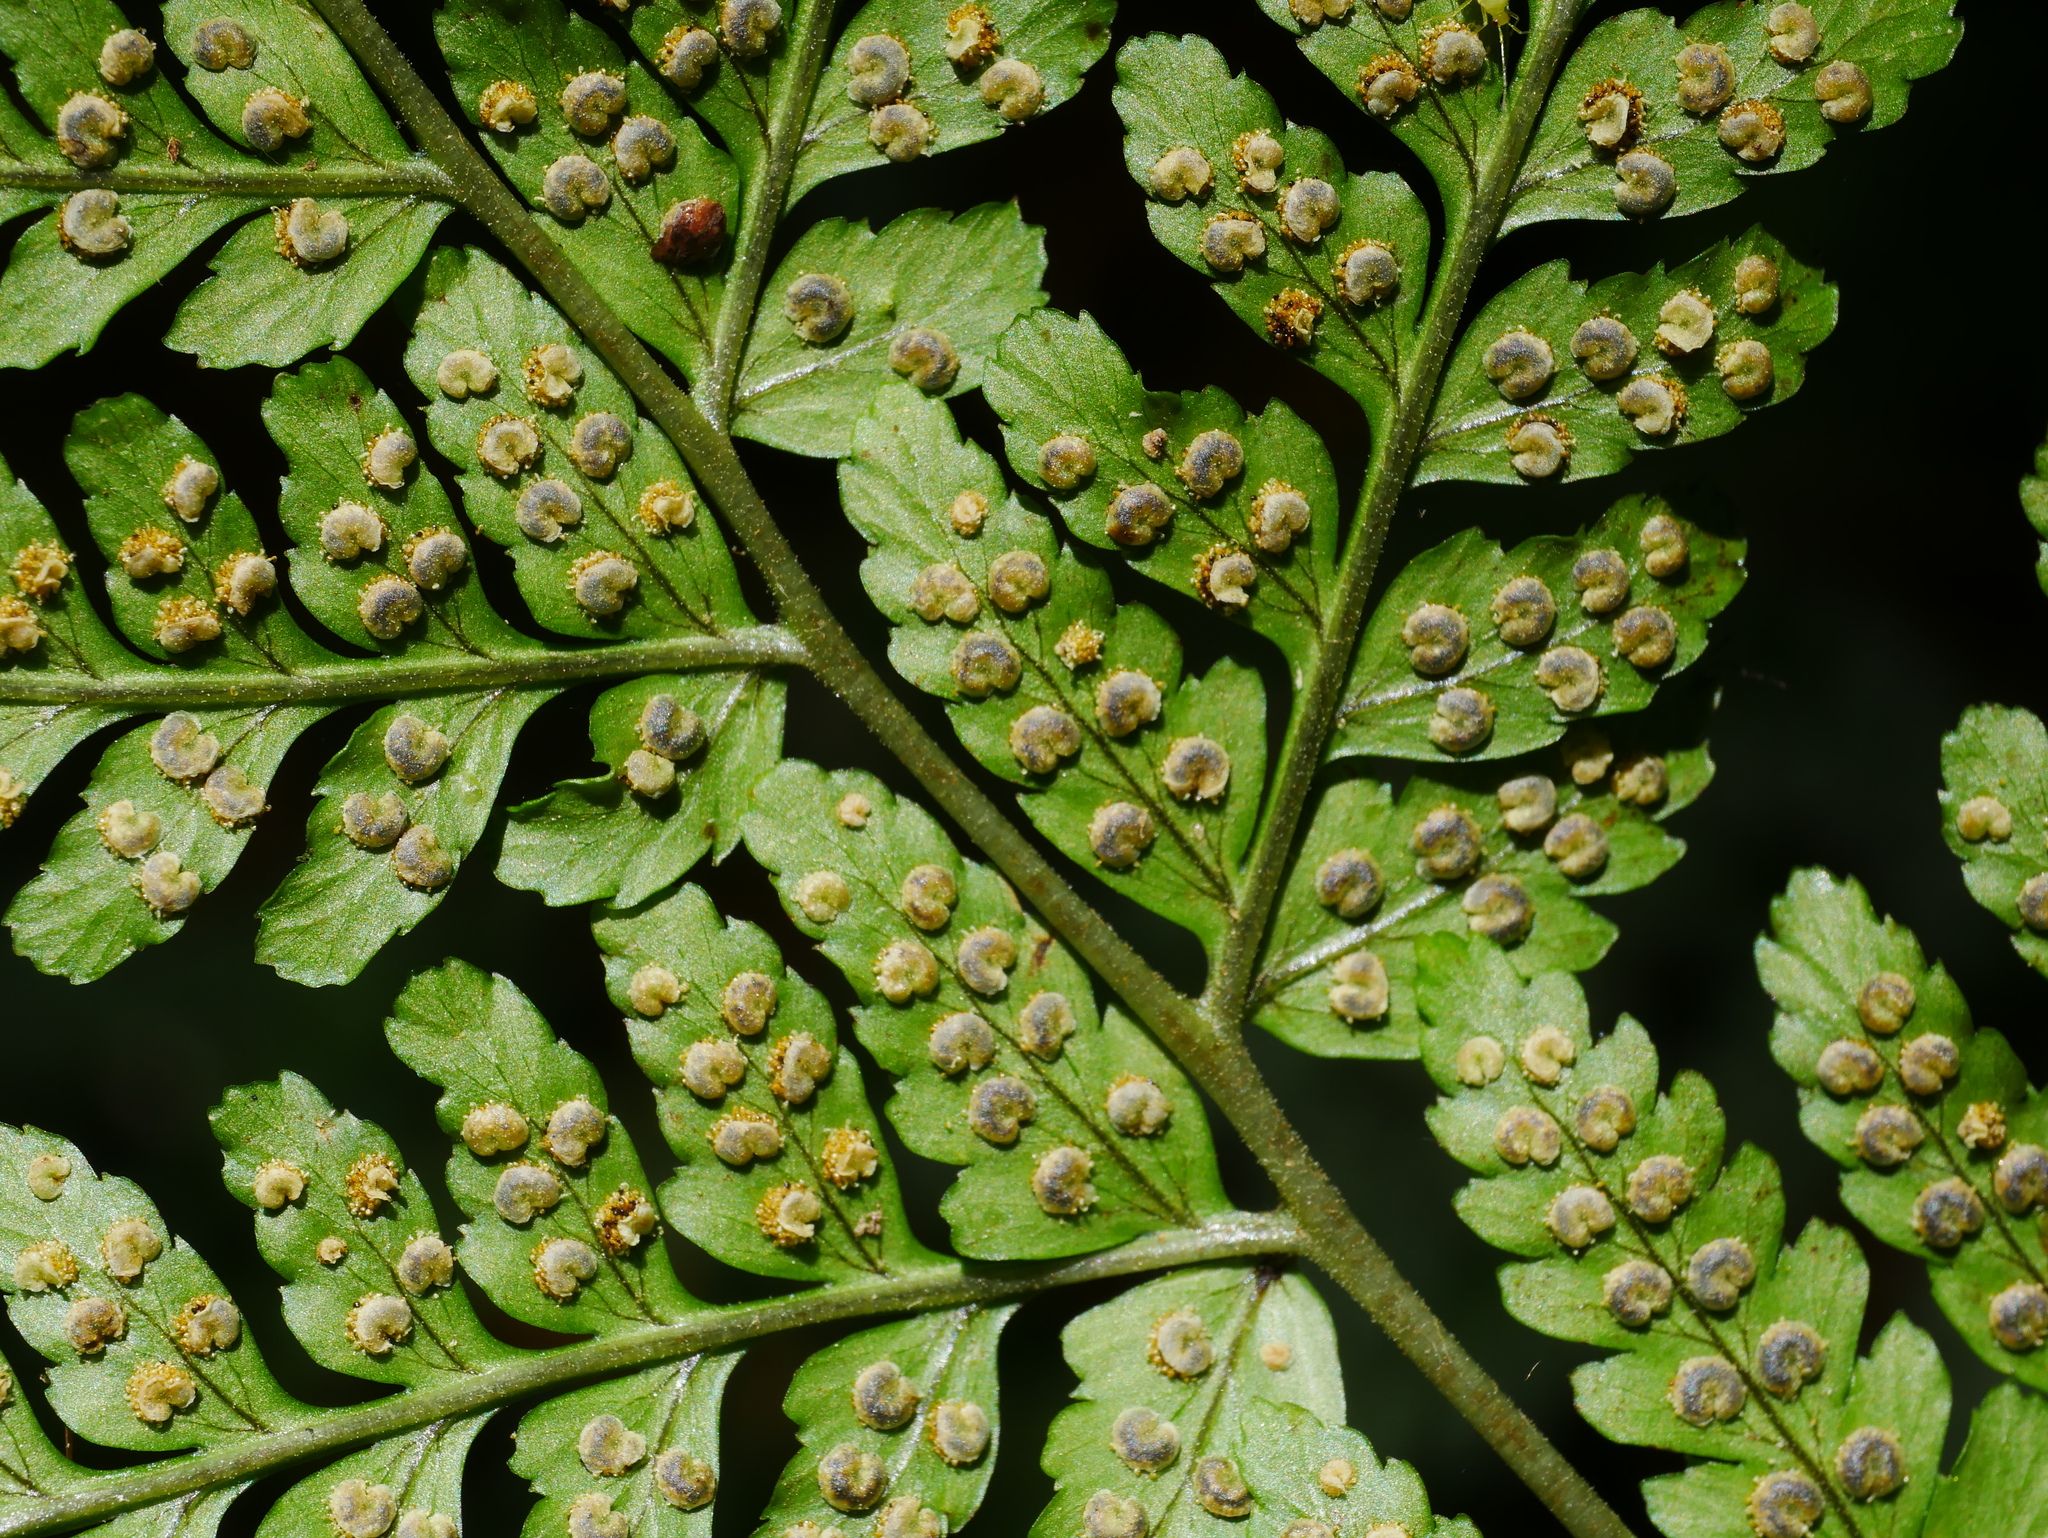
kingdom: Plantae
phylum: Tracheophyta
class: Polypodiopsida
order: Polypodiales
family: Dryopteridaceae
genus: Dryopteris
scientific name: Dryopteris melanocarpa
